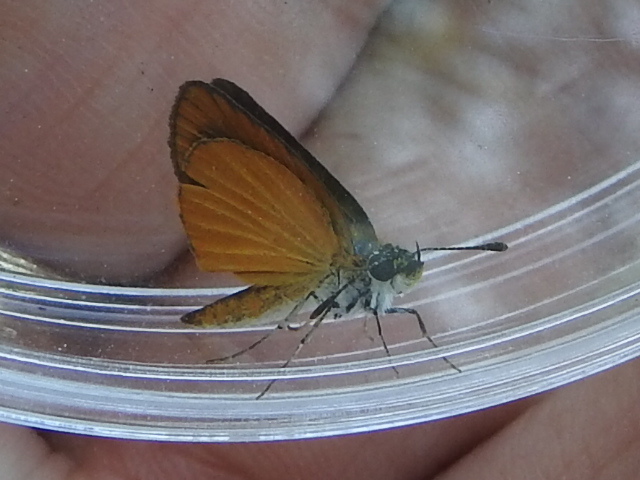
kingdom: Animalia
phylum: Arthropoda
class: Insecta
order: Lepidoptera
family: Hesperiidae
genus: Ancyloxypha
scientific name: Ancyloxypha numitor
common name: Least skipper
